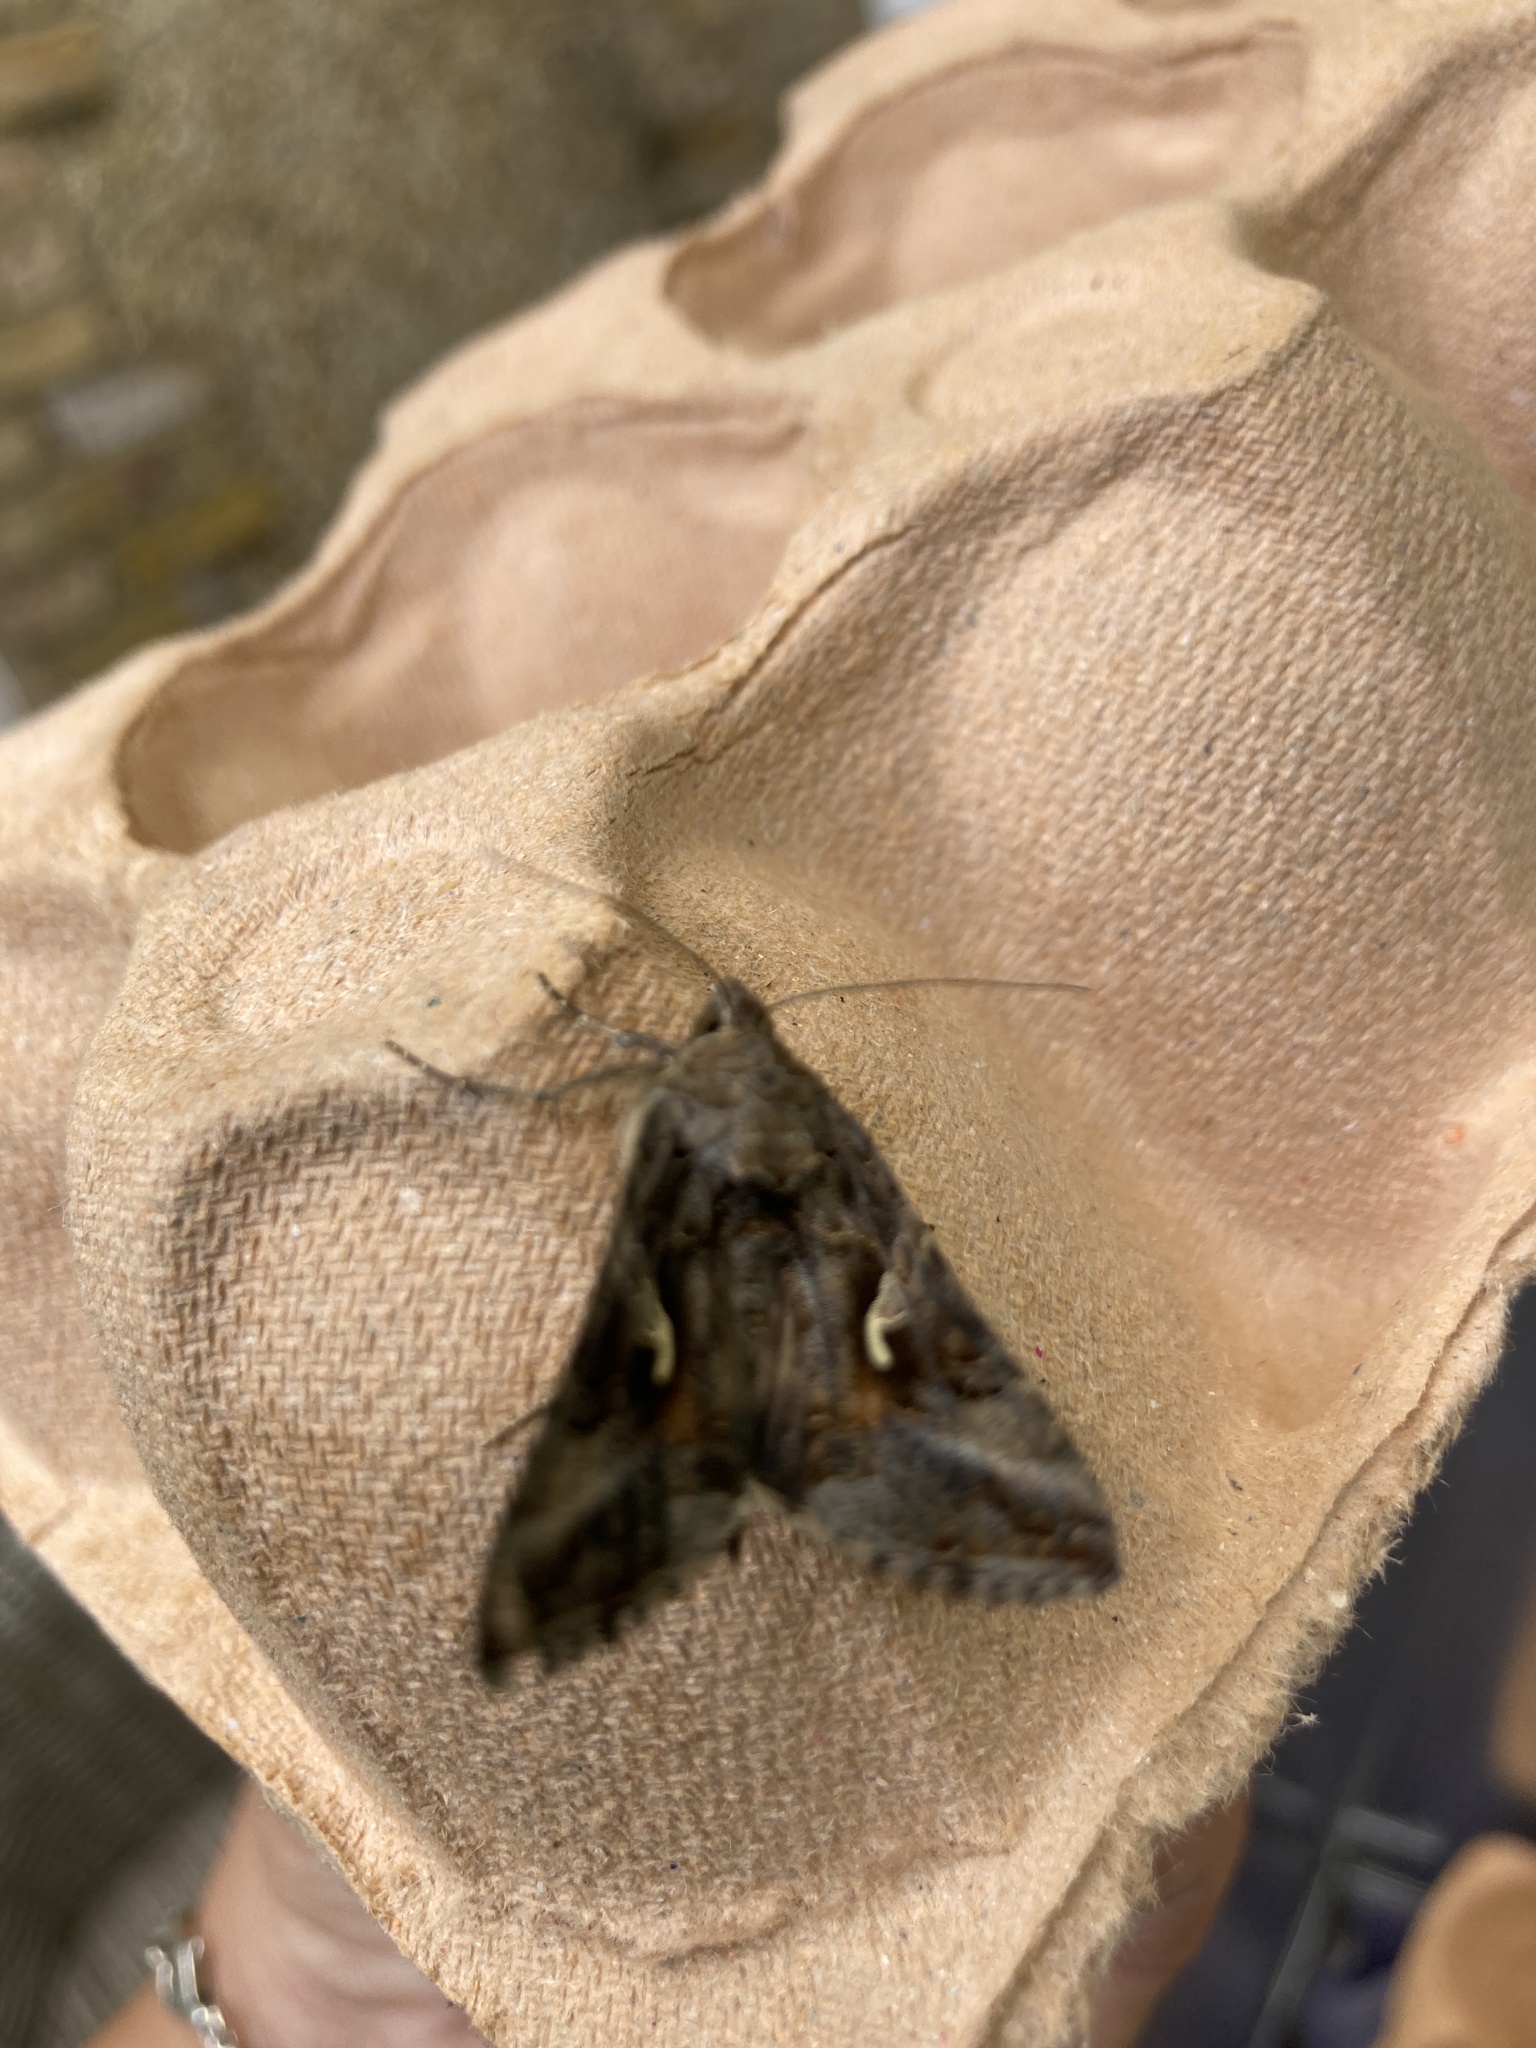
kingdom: Animalia
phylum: Arthropoda
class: Insecta
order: Lepidoptera
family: Noctuidae
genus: Autographa
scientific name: Autographa gamma
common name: Silver y
